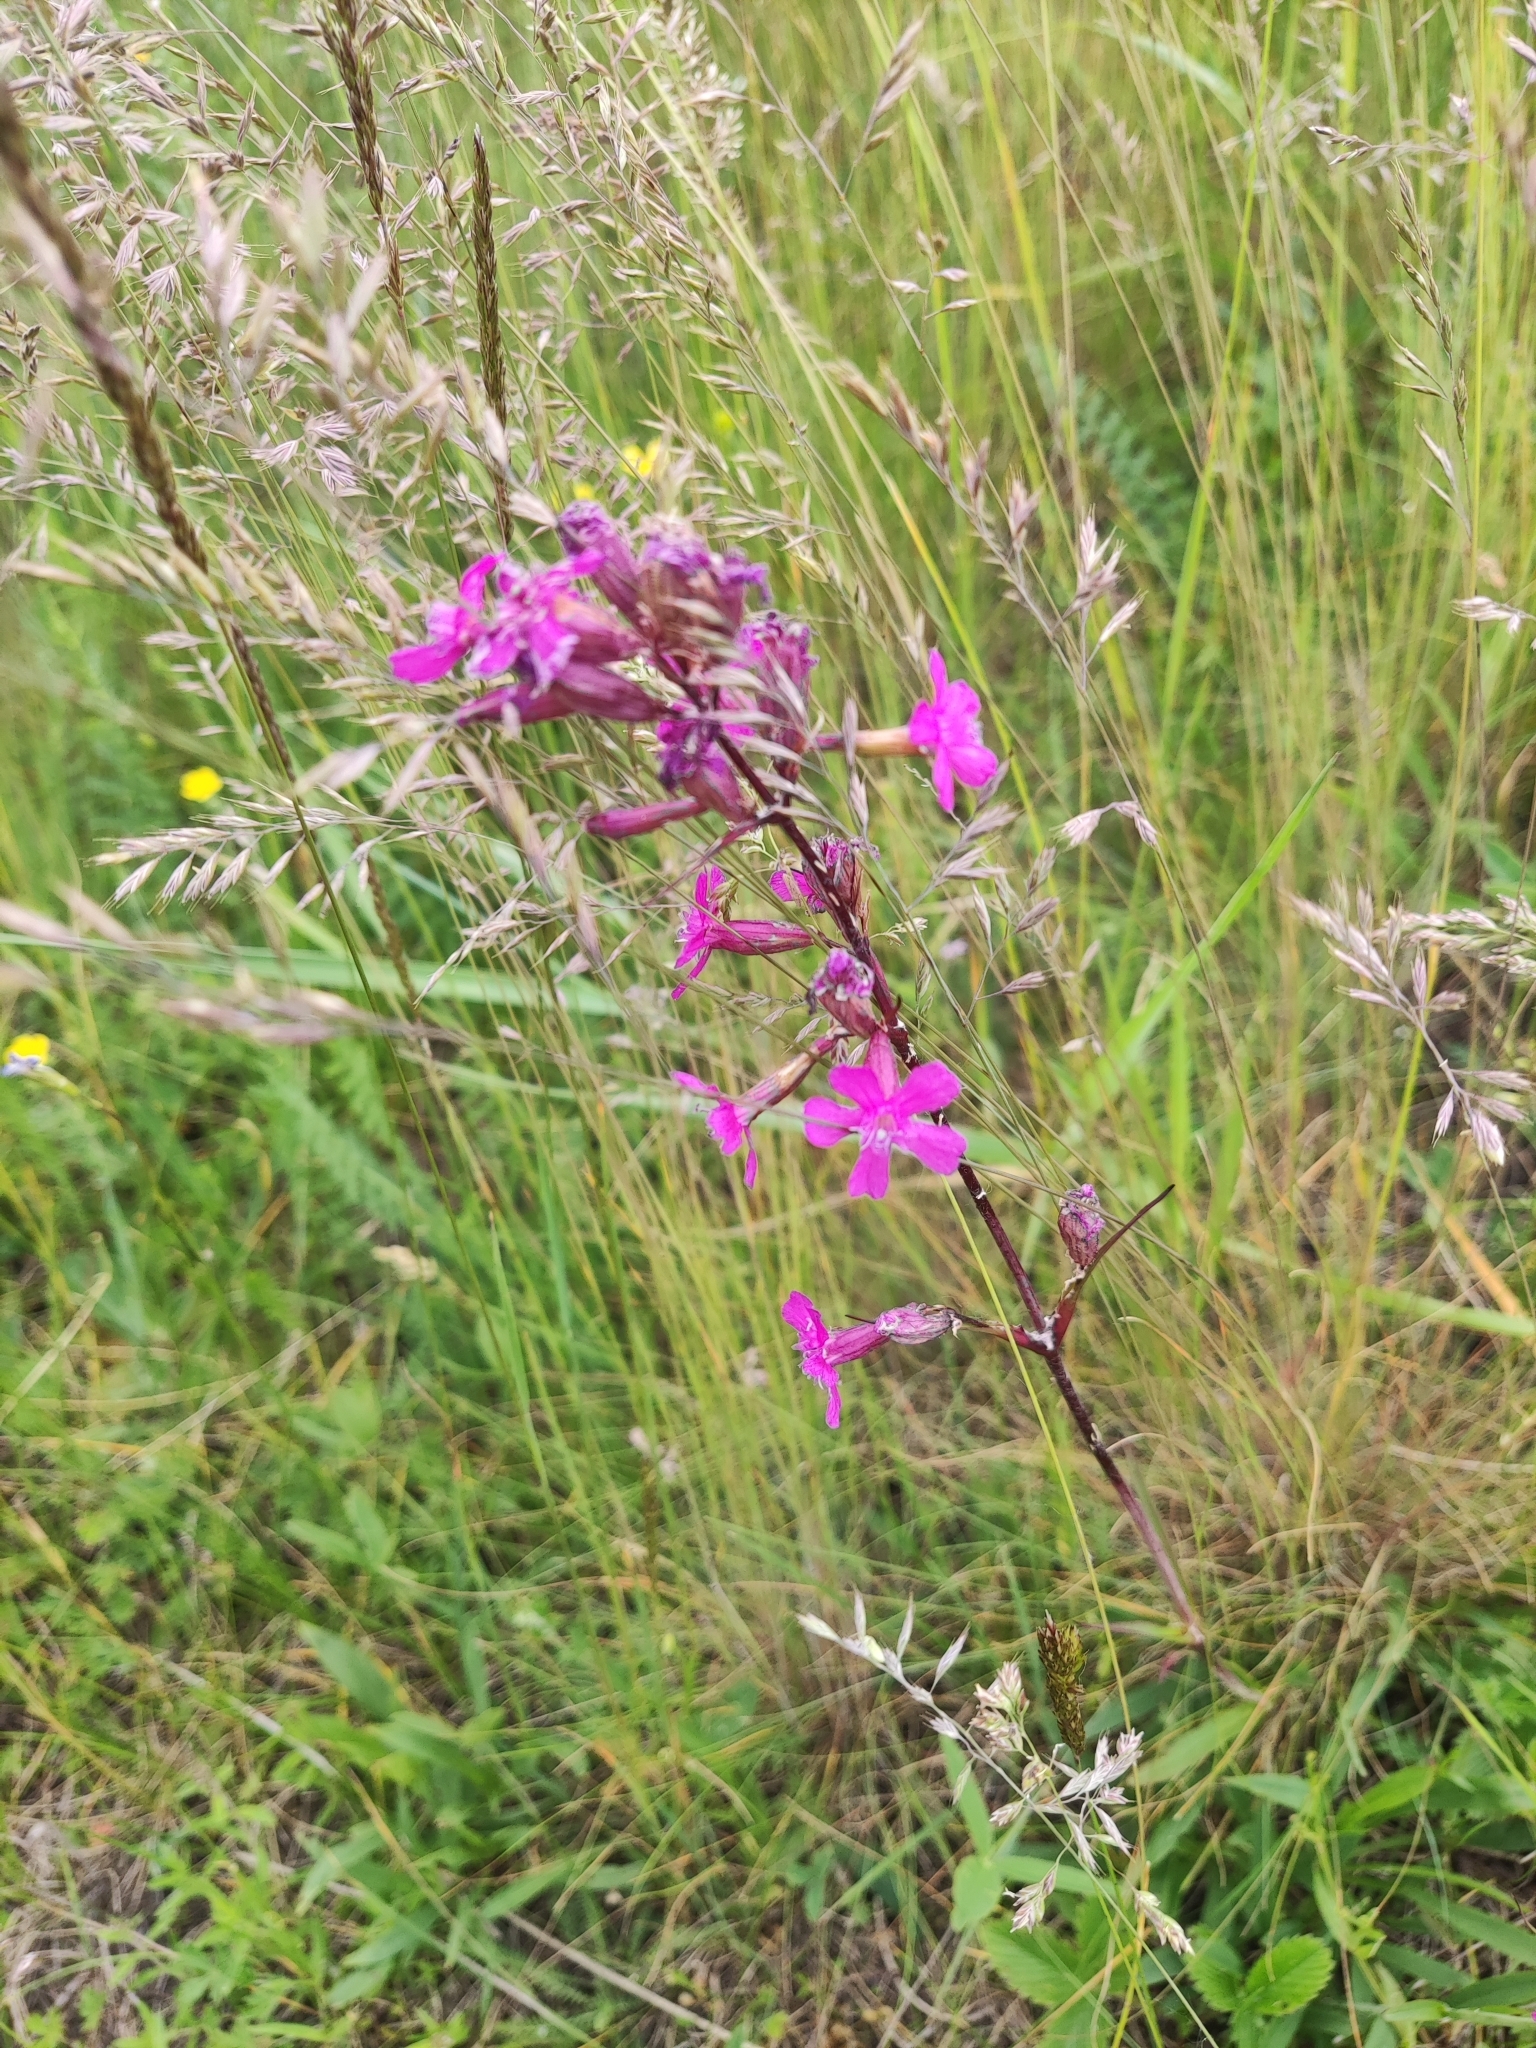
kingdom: Plantae
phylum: Tracheophyta
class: Magnoliopsida
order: Caryophyllales
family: Caryophyllaceae
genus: Viscaria
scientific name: Viscaria vulgaris
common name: Clammy campion
